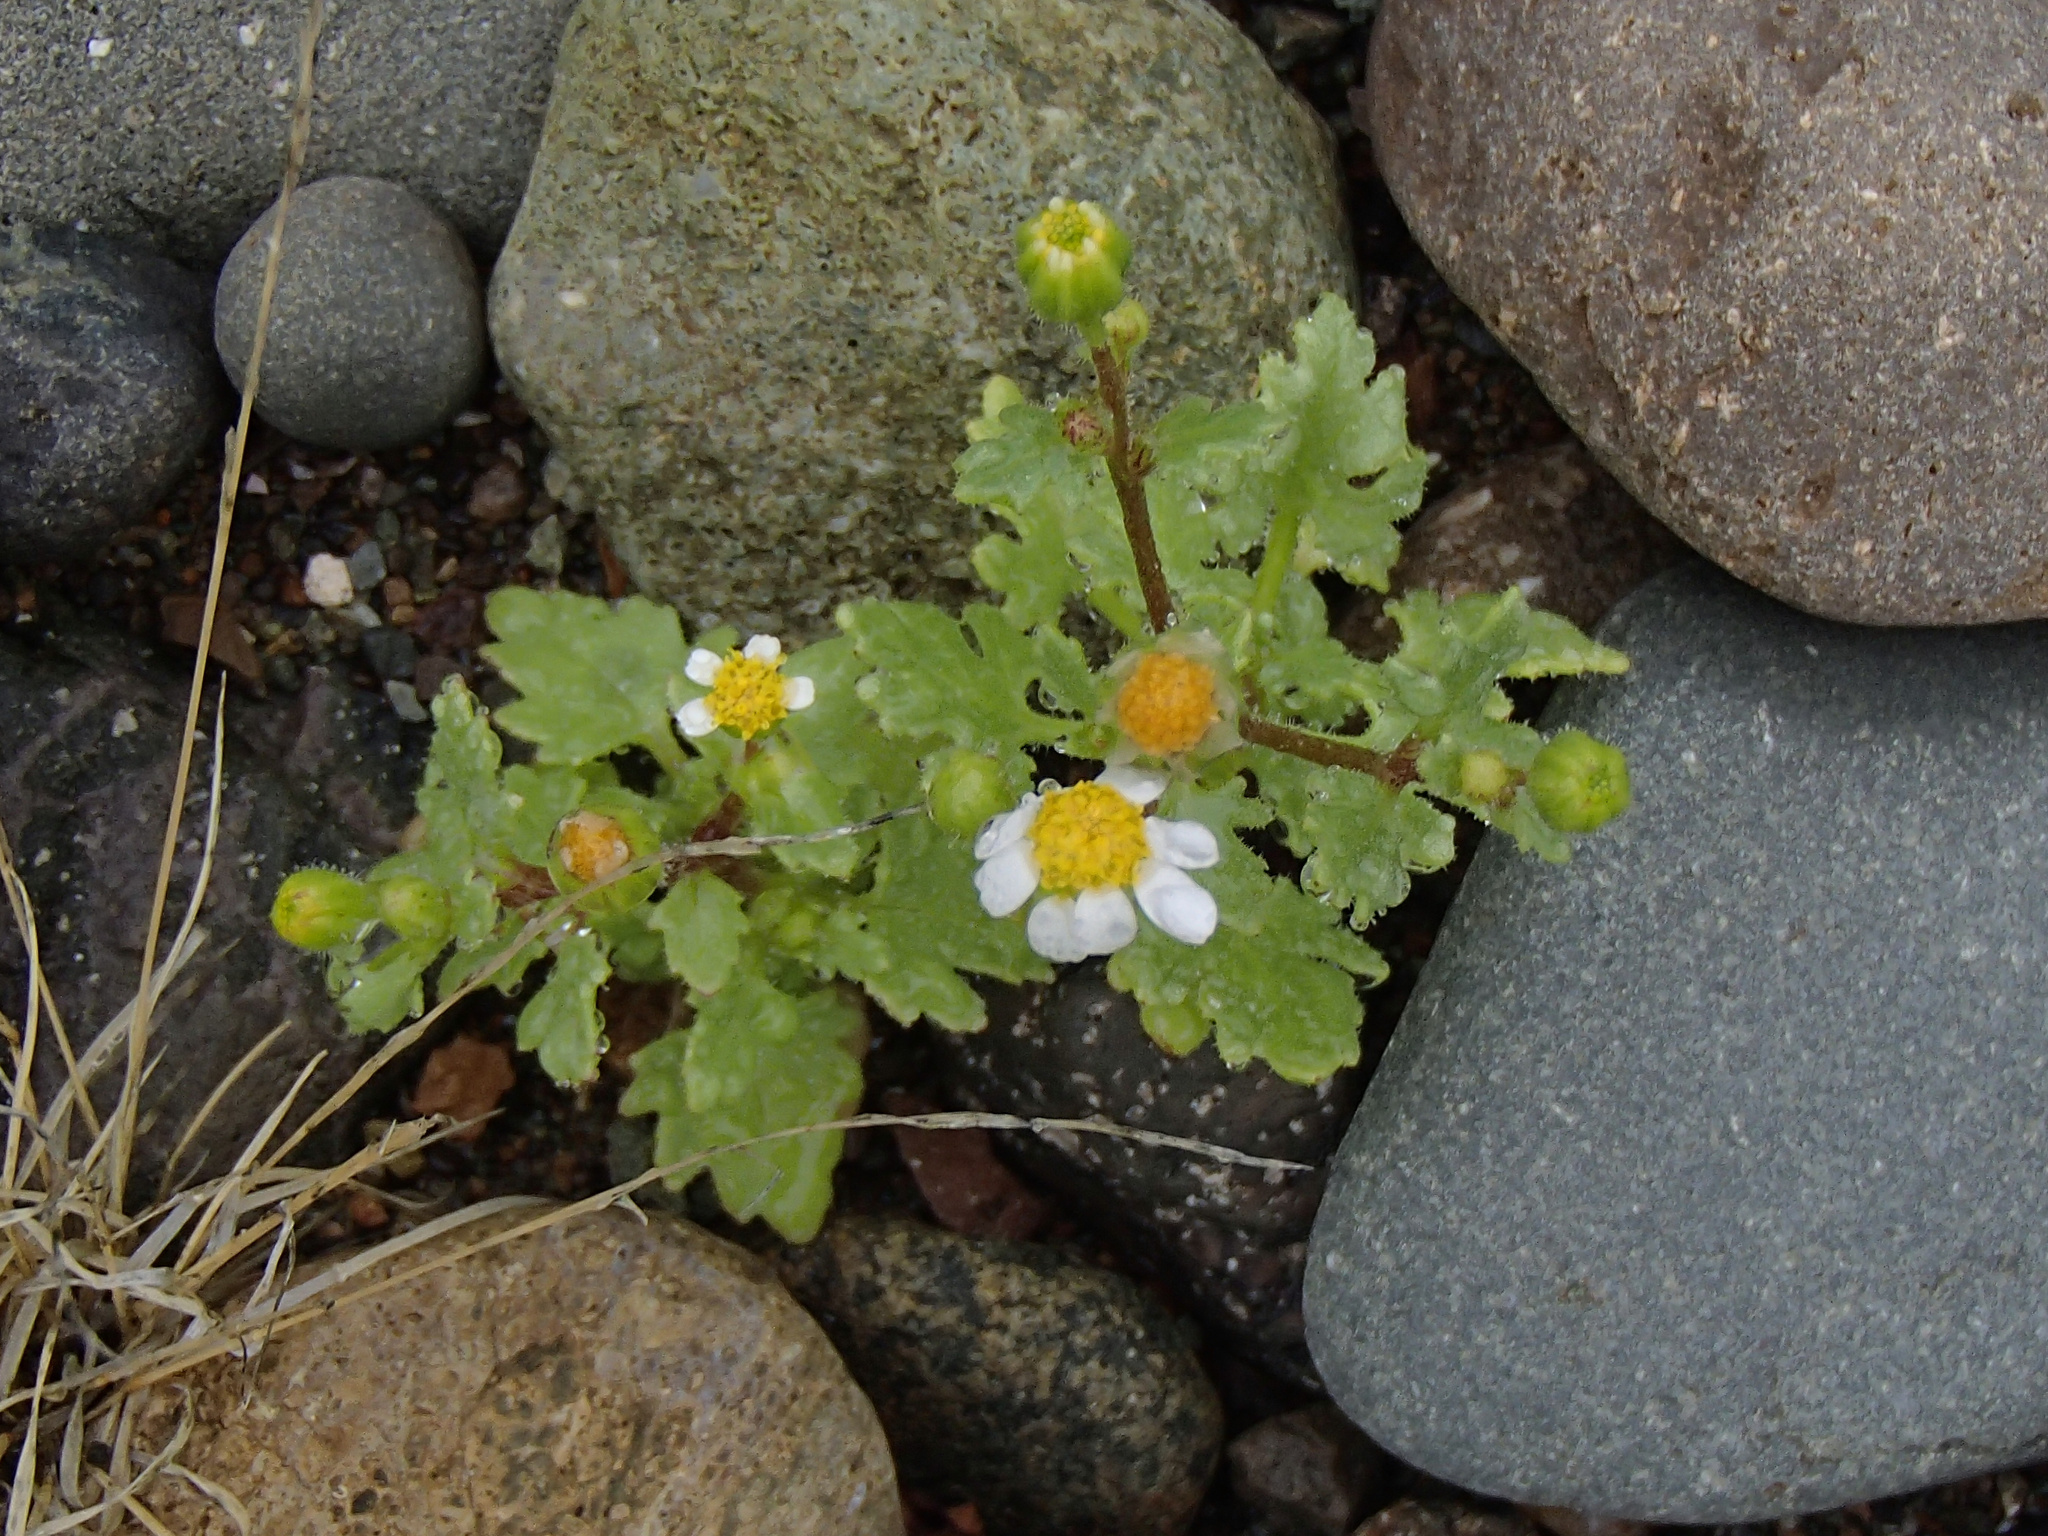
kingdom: Plantae
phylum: Tracheophyta
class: Magnoliopsida
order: Asterales
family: Asteraceae
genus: Laphamia
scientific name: Laphamia emoryi
